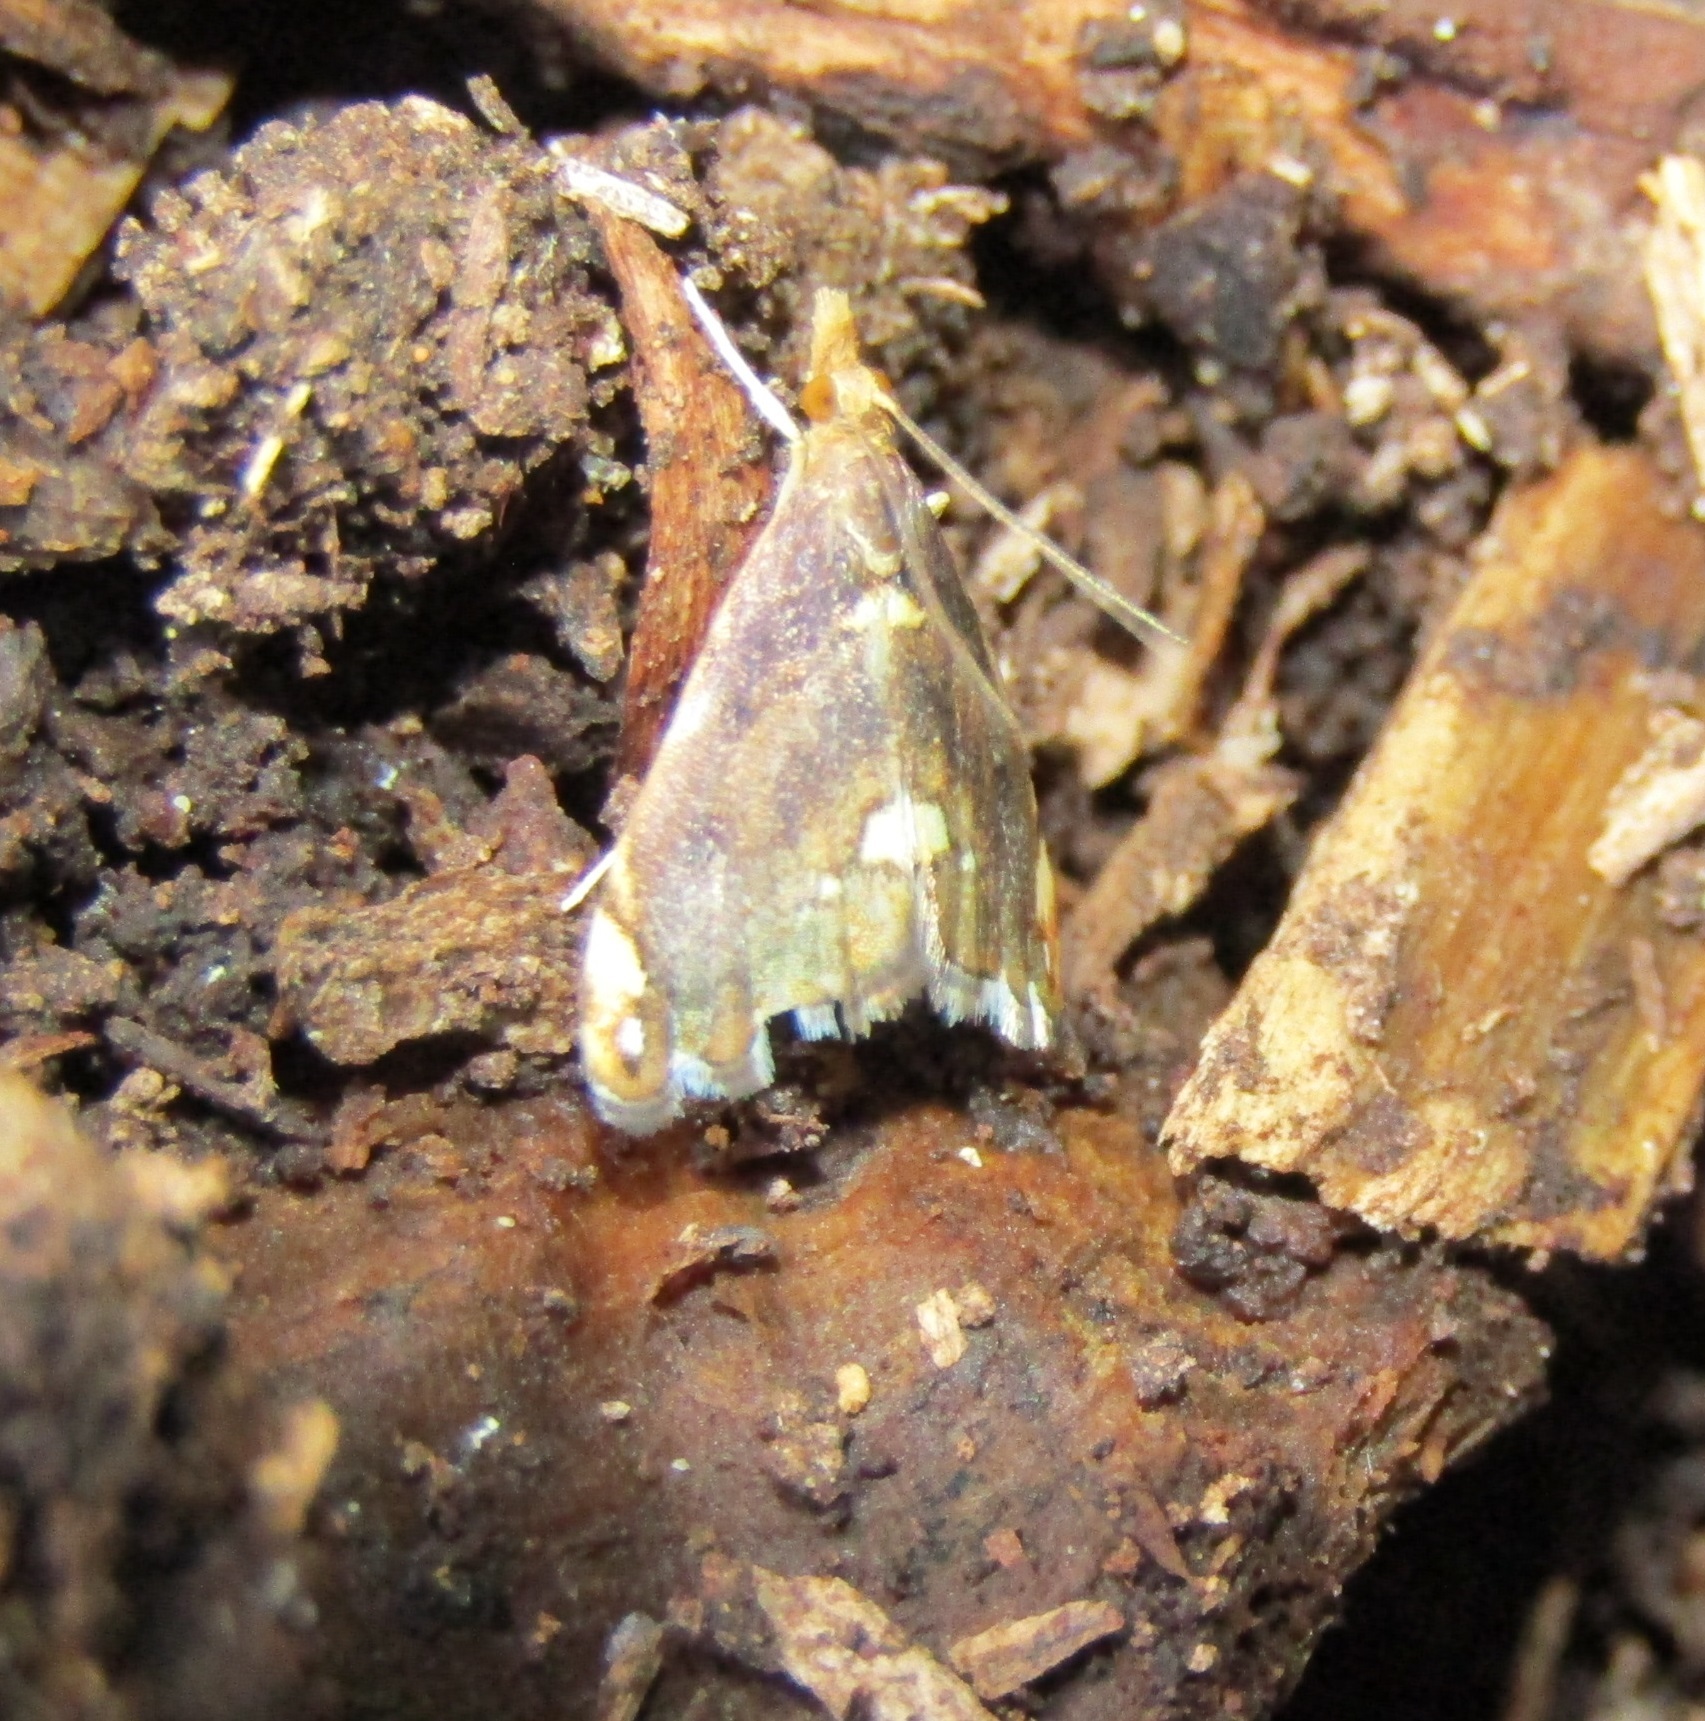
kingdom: Animalia
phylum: Arthropoda
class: Insecta
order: Lepidoptera
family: Crambidae
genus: Glaucocharis
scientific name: Glaucocharis pyrsophanes
